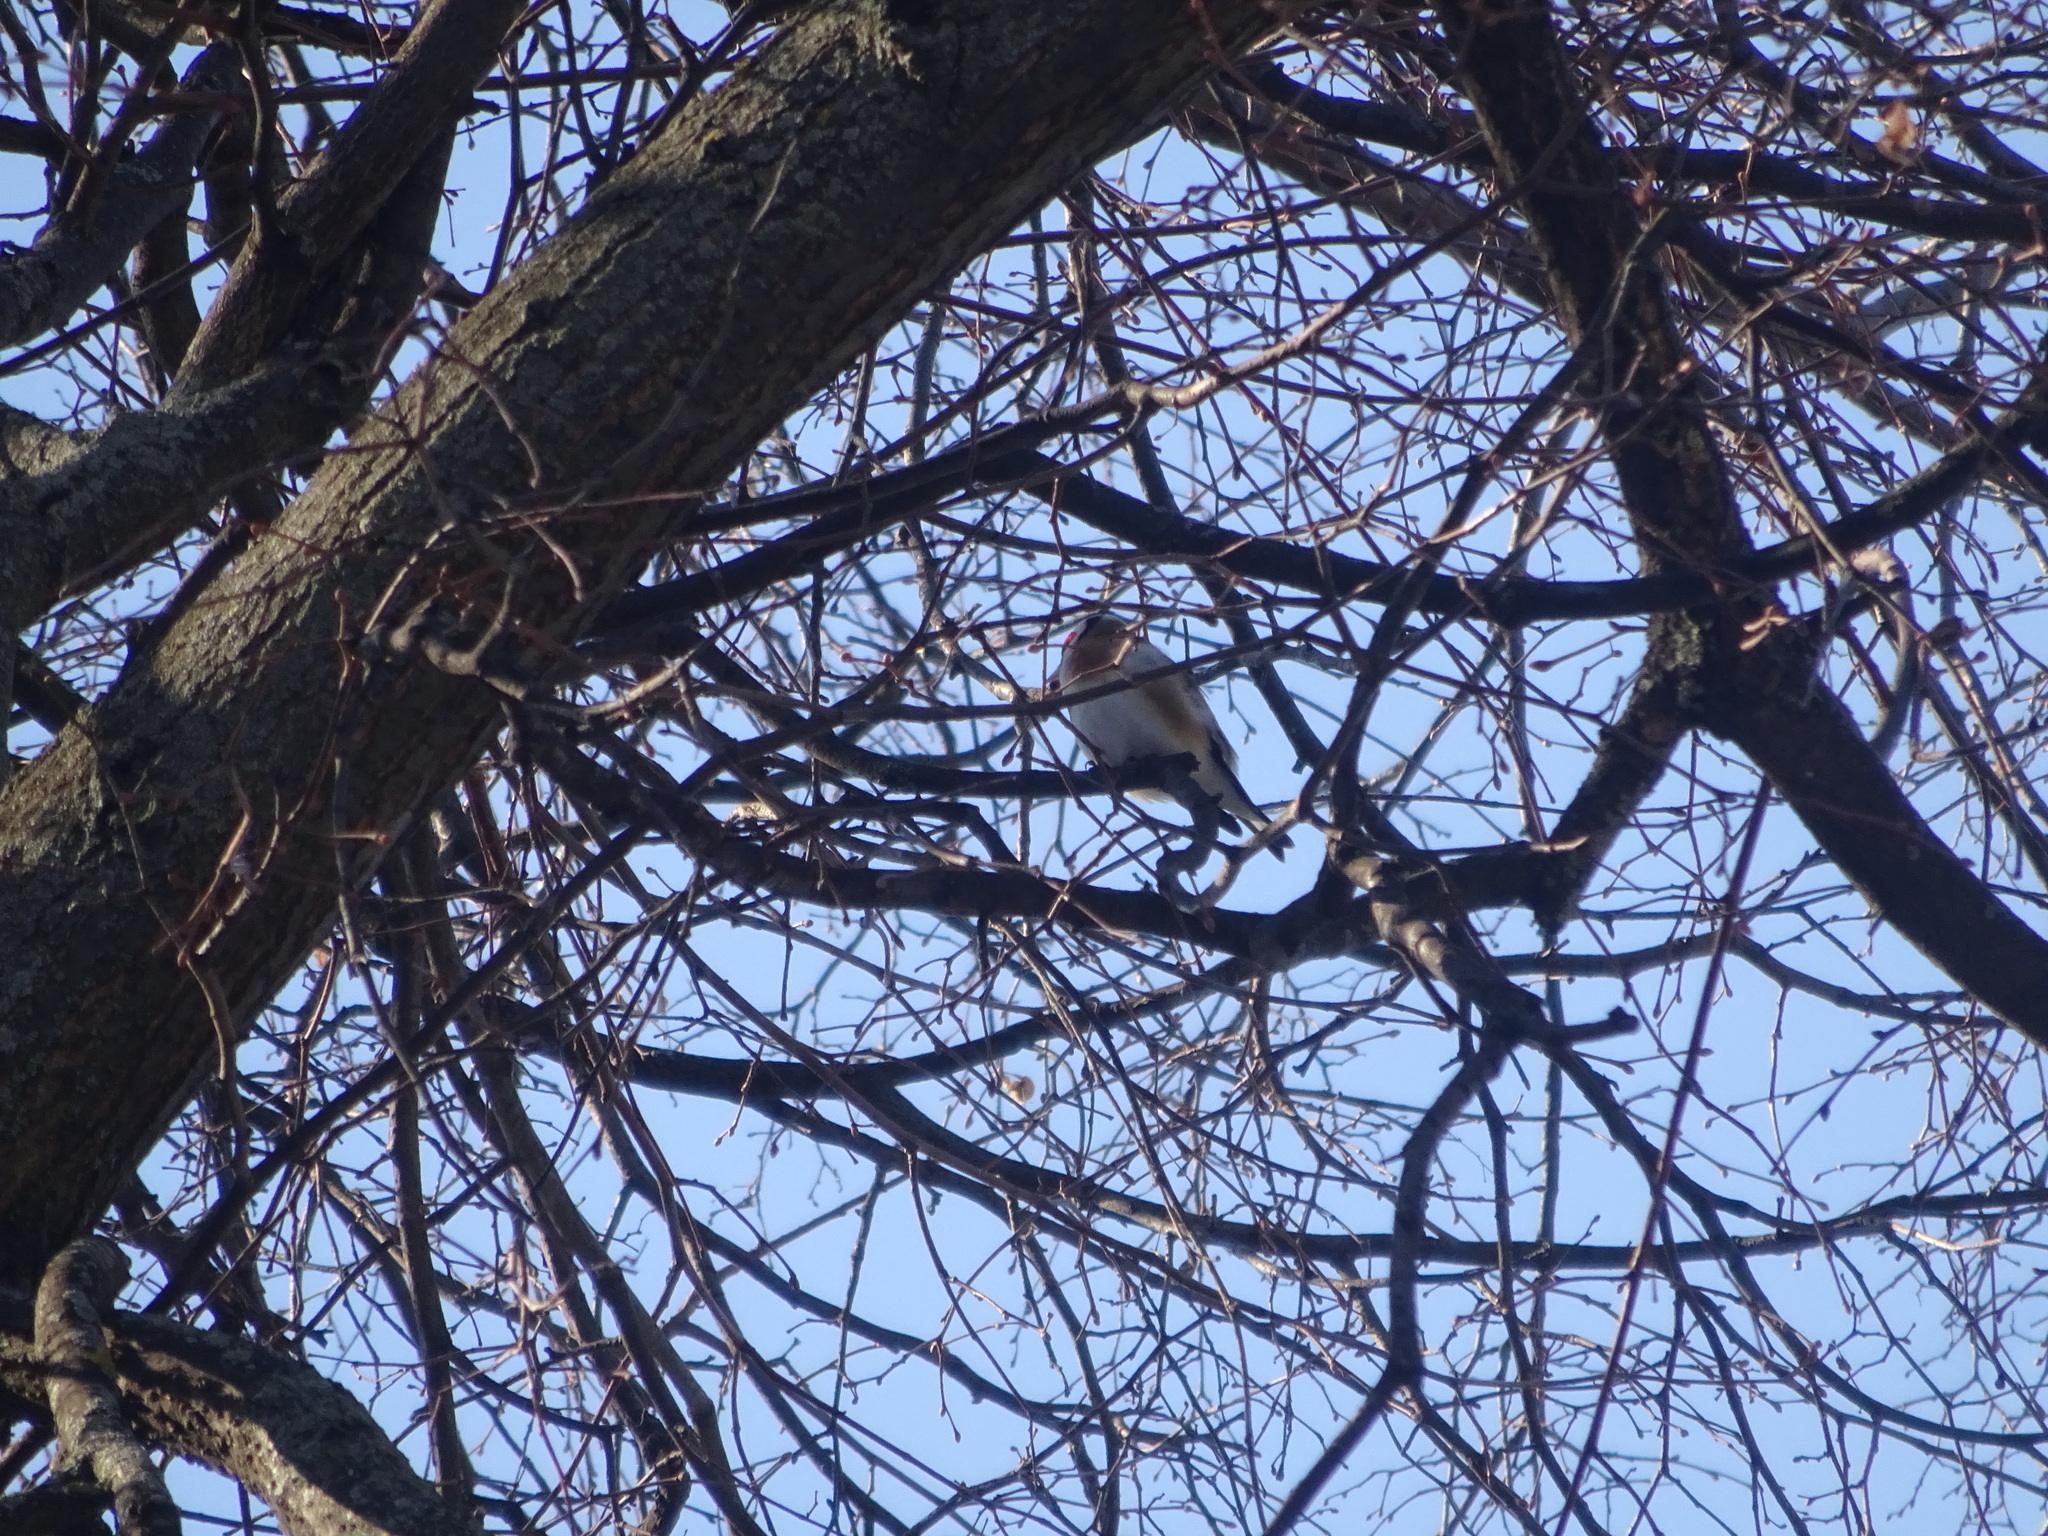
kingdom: Animalia
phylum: Chordata
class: Aves
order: Passeriformes
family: Fringillidae
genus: Carduelis
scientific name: Carduelis carduelis
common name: European goldfinch
